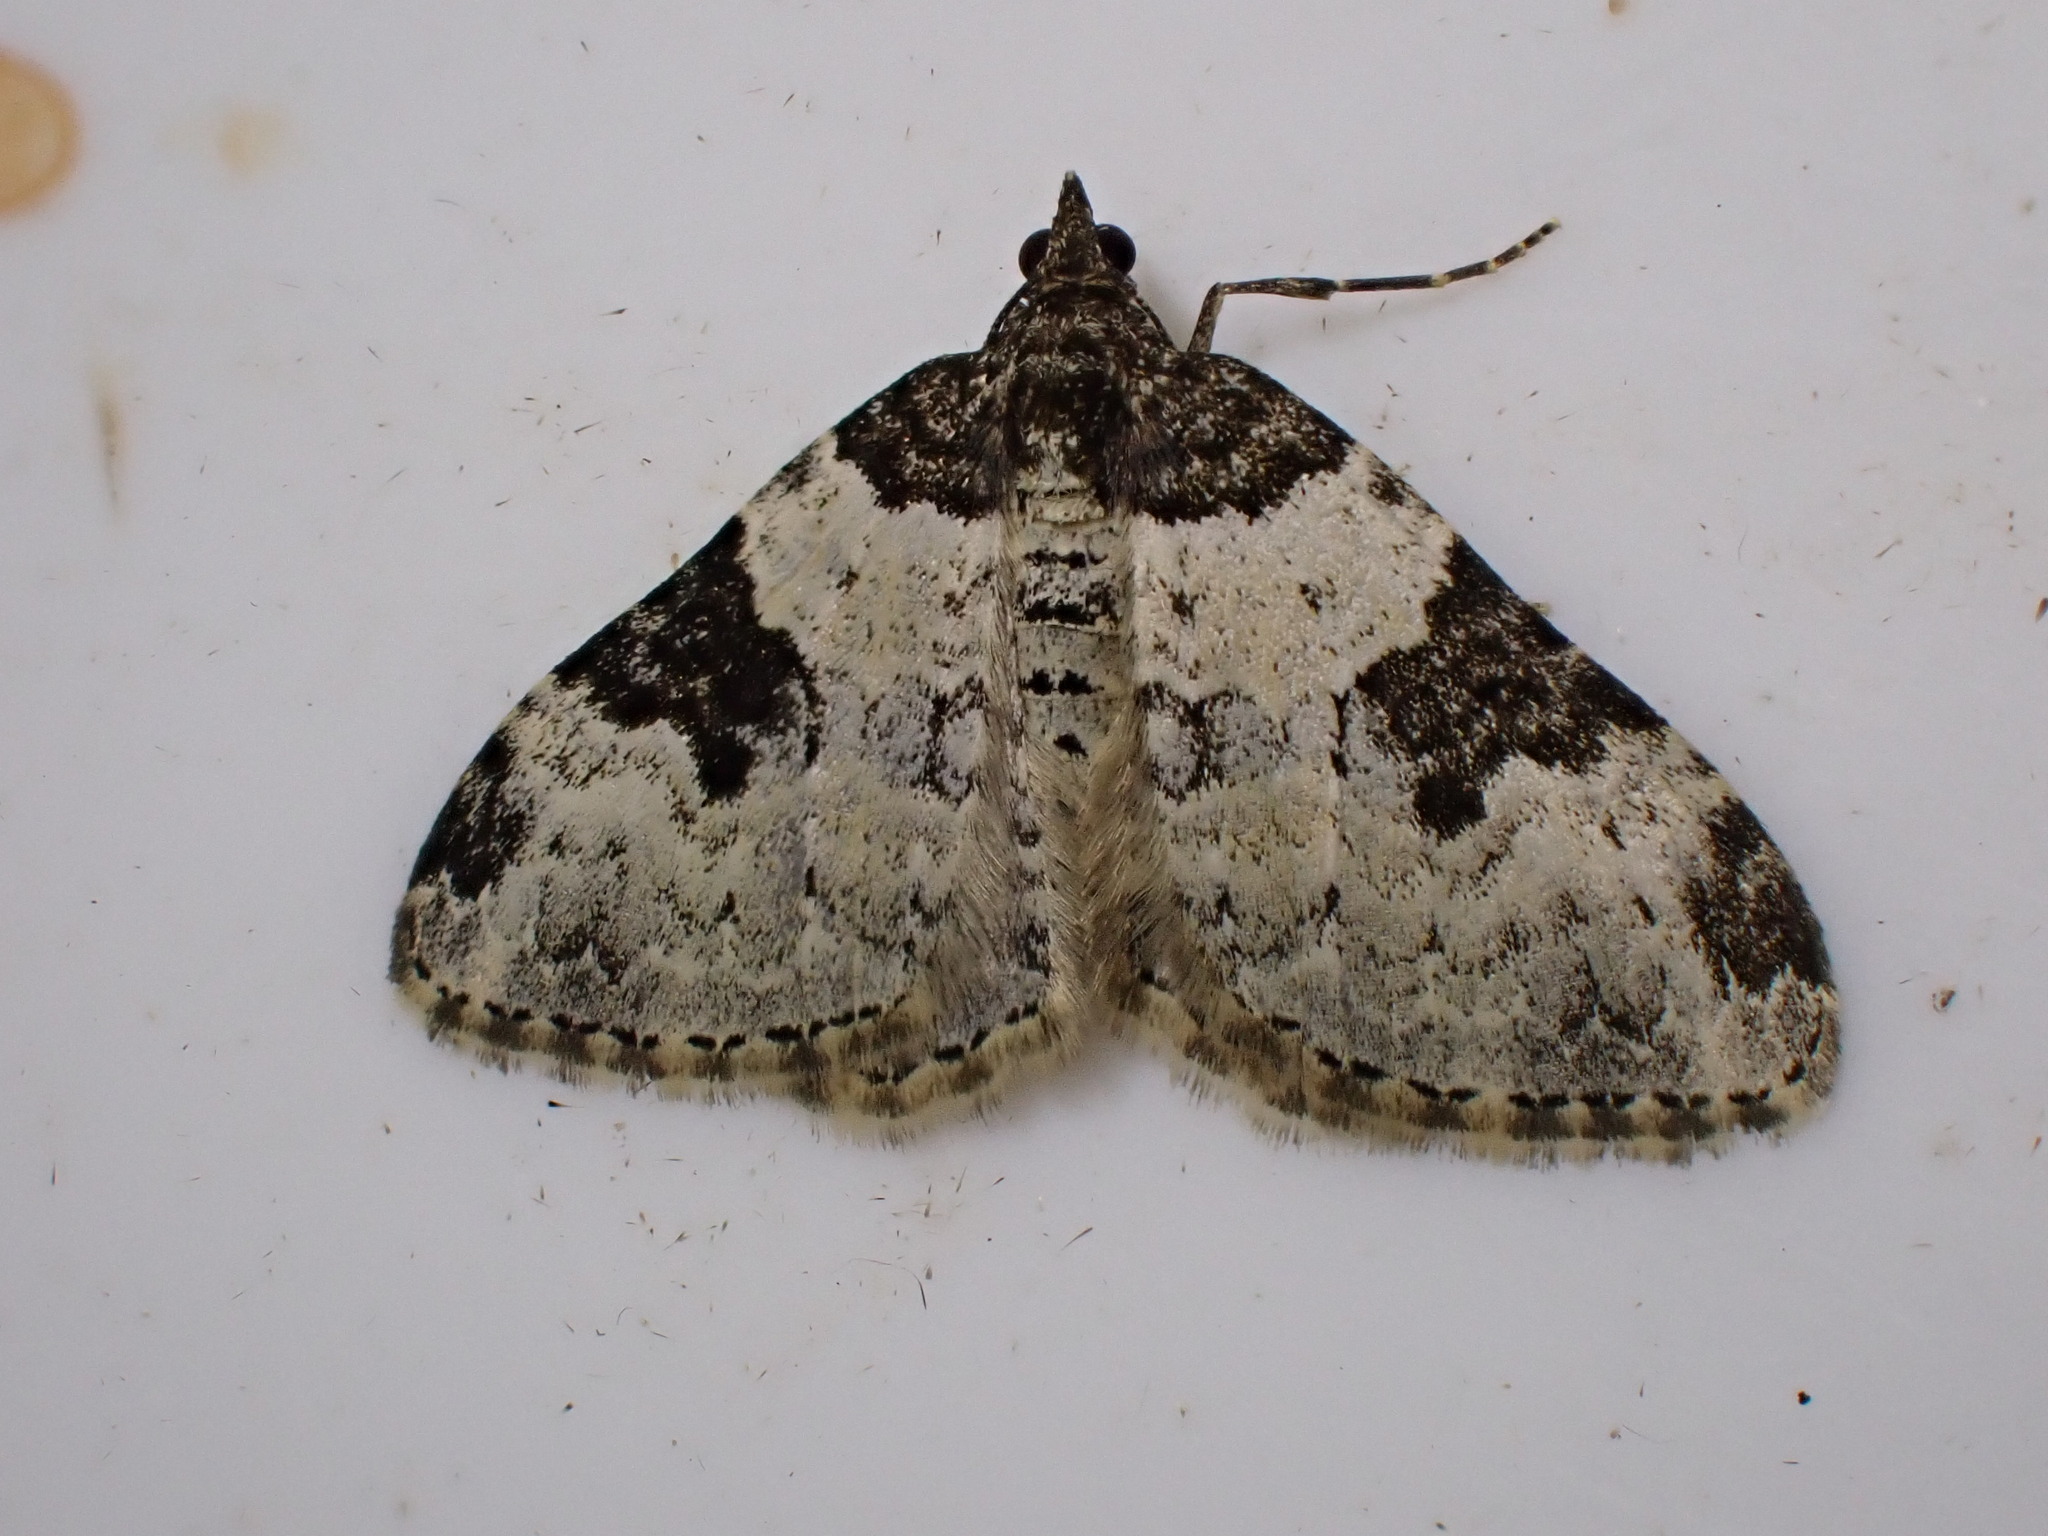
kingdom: Animalia
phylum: Arthropoda
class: Insecta
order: Lepidoptera
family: Geometridae
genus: Xanthorhoe
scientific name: Xanthorhoe fluctuata
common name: Garden carpet
